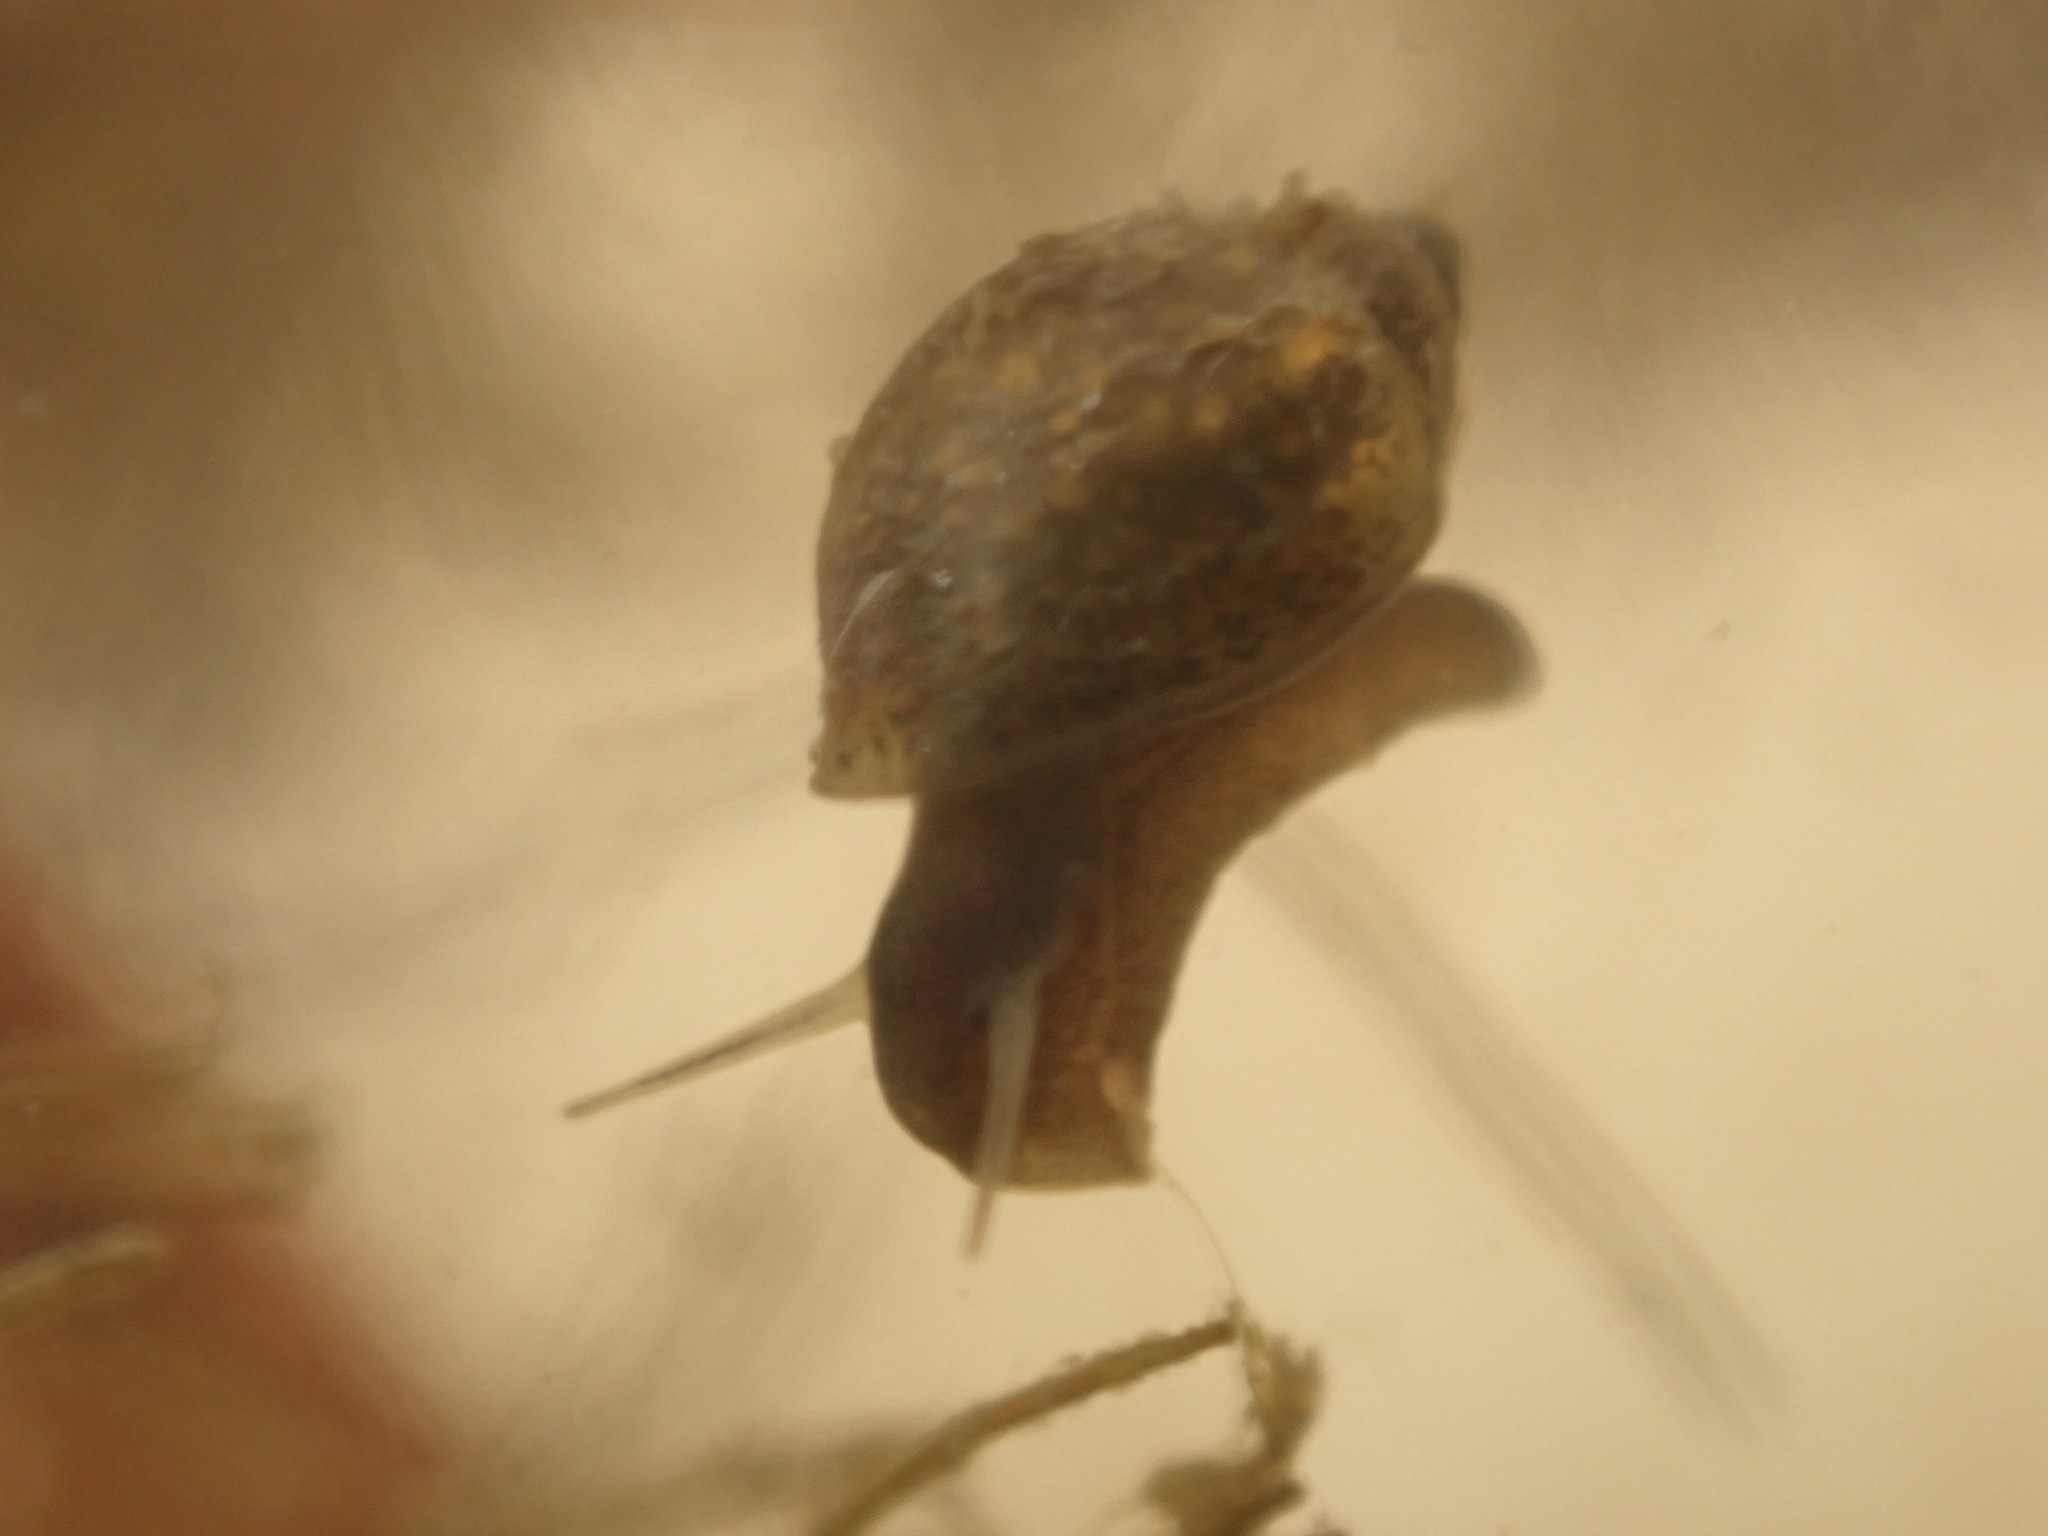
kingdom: Animalia
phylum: Mollusca
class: Gastropoda
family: Physidae
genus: Physella
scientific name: Physella acuta
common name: European physa
